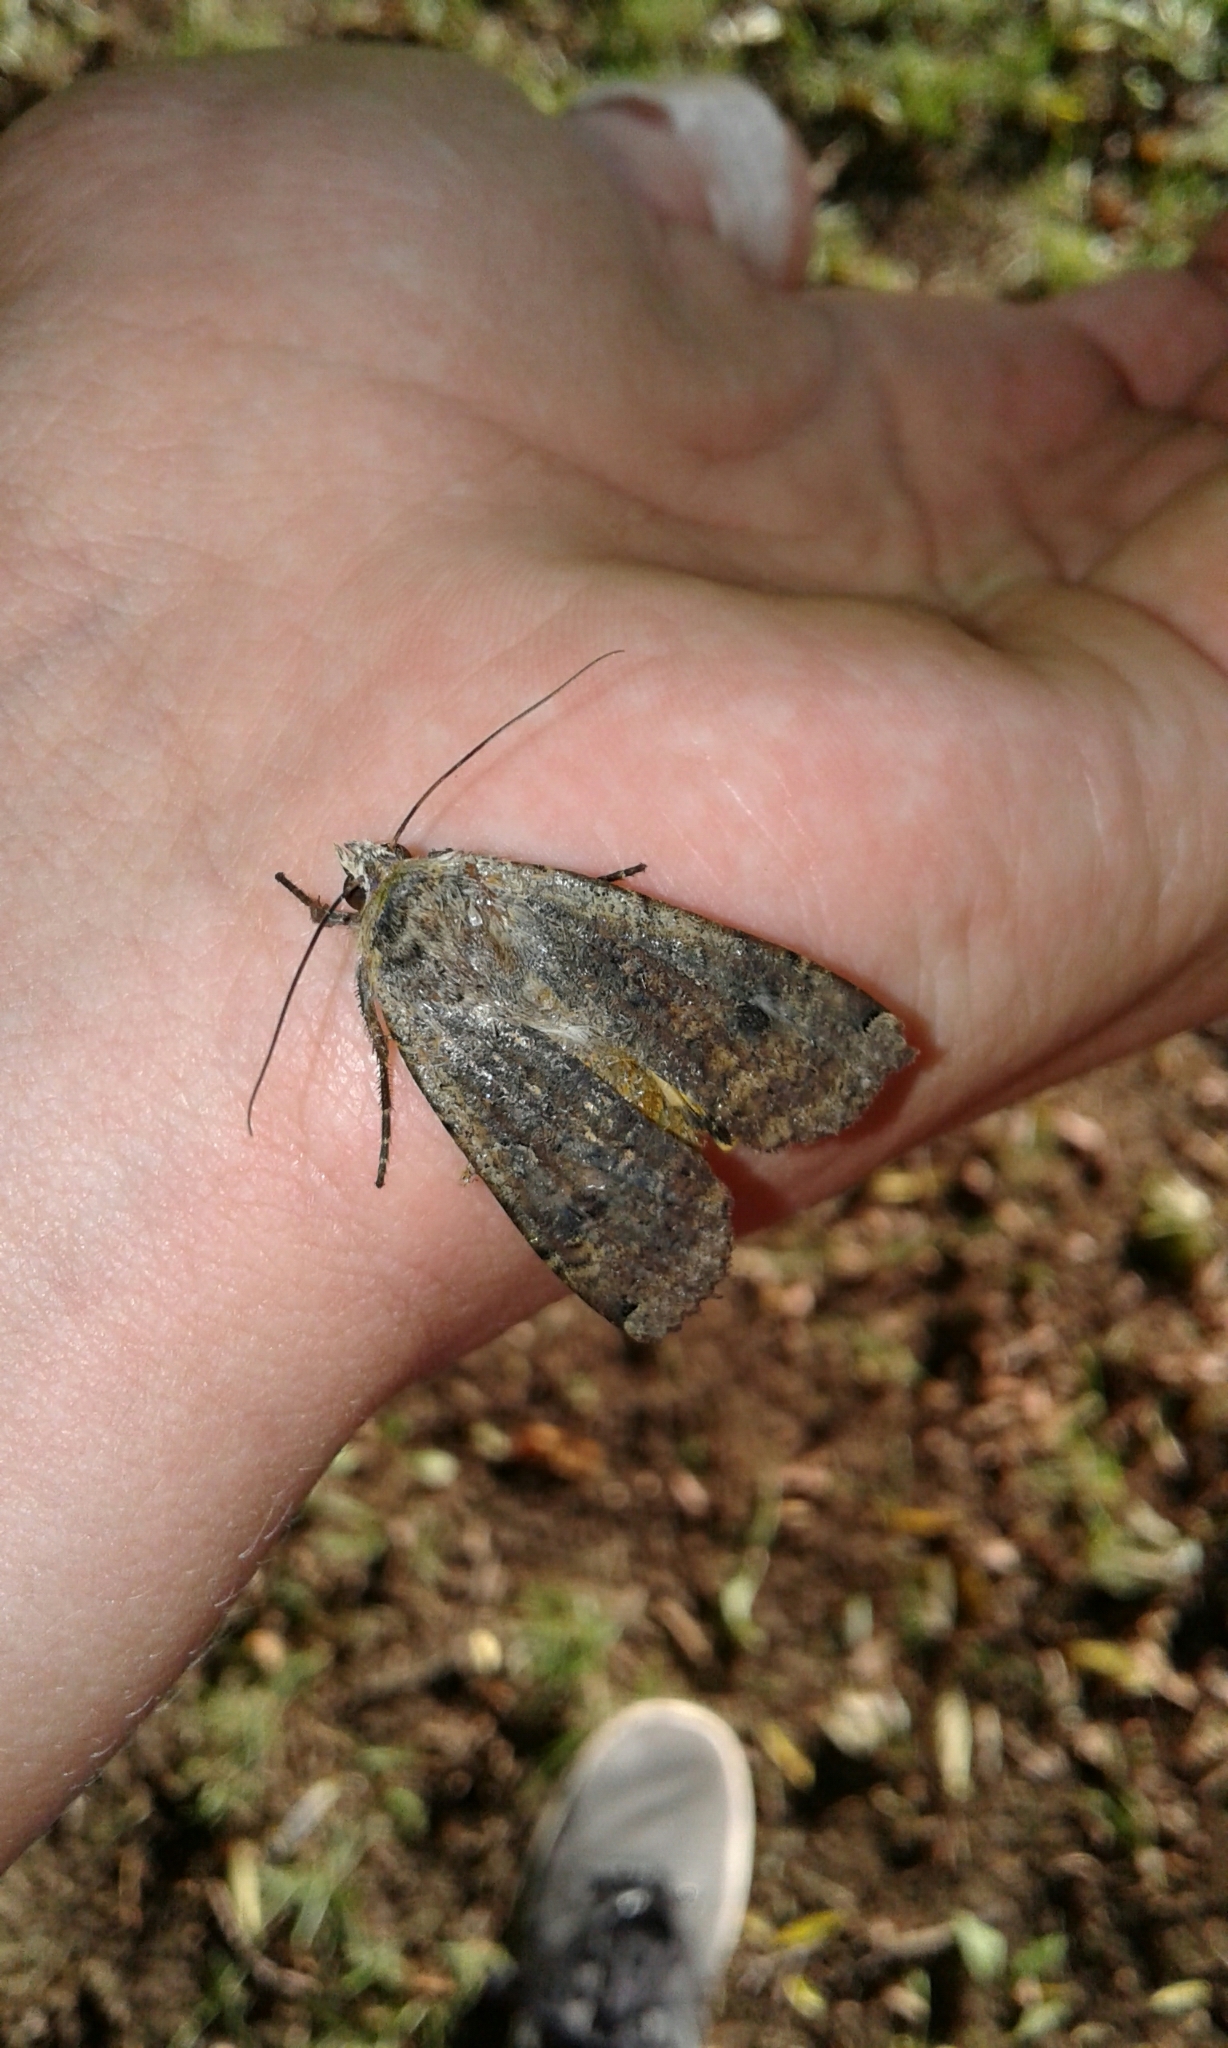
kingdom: Animalia
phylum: Arthropoda
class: Insecta
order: Lepidoptera
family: Noctuidae
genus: Noctua
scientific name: Noctua pronuba
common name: Large yellow underwing
